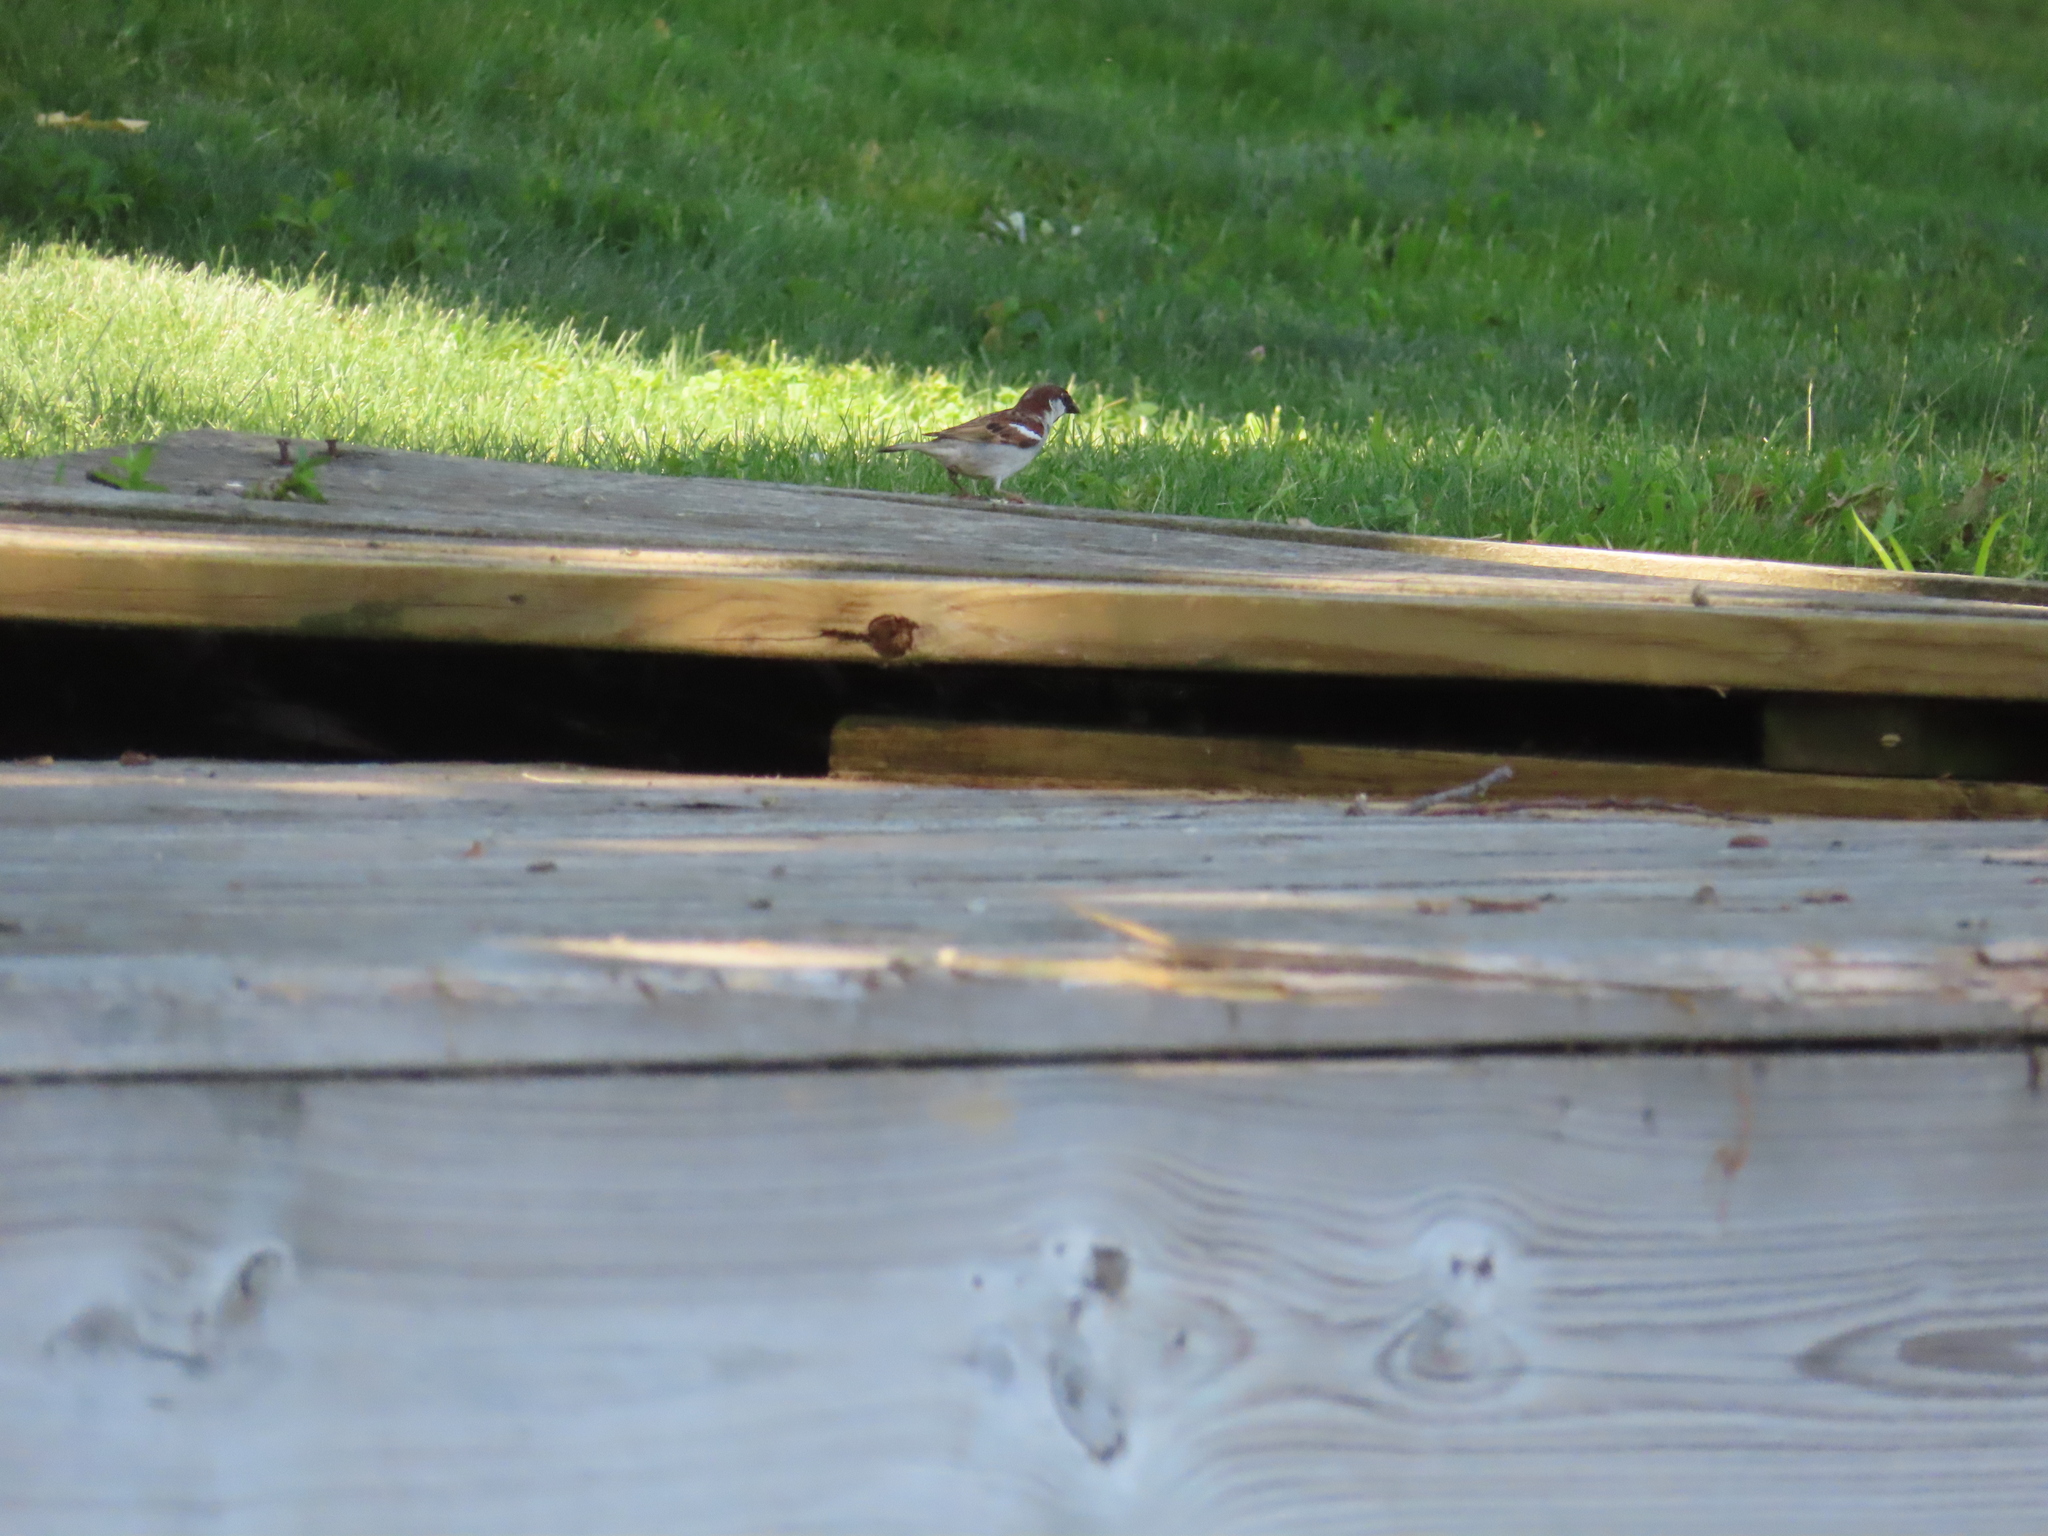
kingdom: Animalia
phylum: Chordata
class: Aves
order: Passeriformes
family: Passeridae
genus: Passer
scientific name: Passer domesticus
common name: House sparrow
